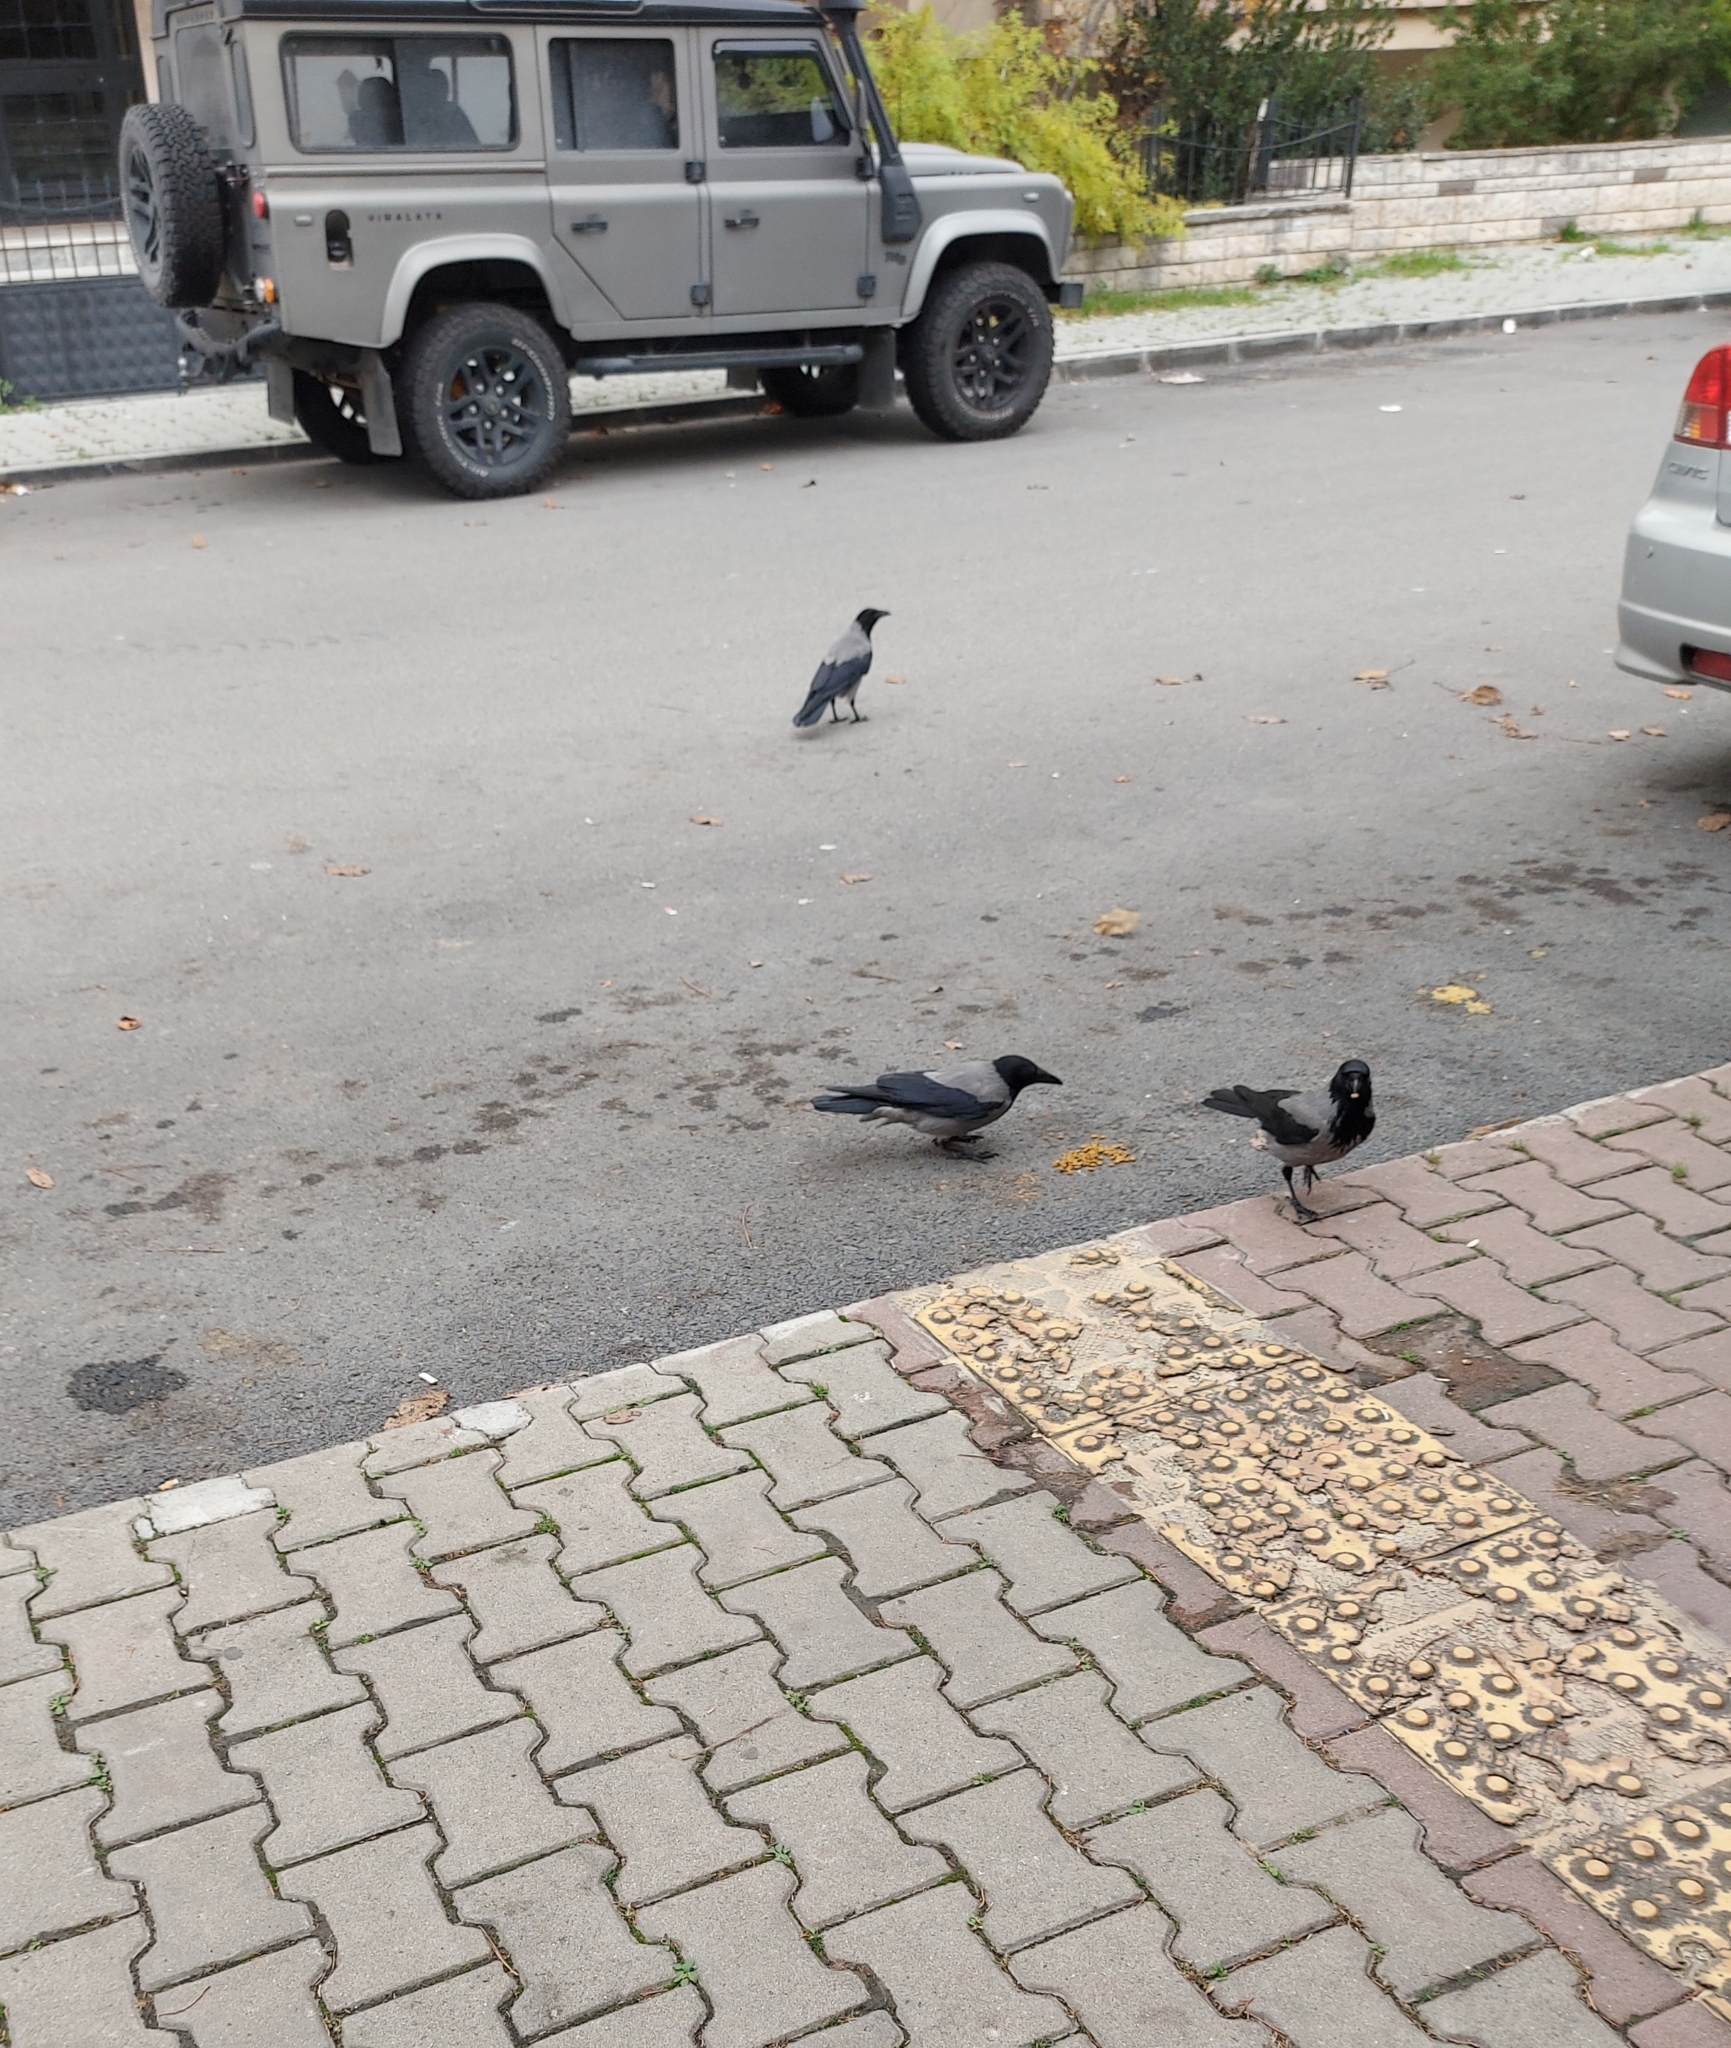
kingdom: Animalia
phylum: Chordata
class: Aves
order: Passeriformes
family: Corvidae
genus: Corvus
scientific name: Corvus cornix
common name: Hooded crow
